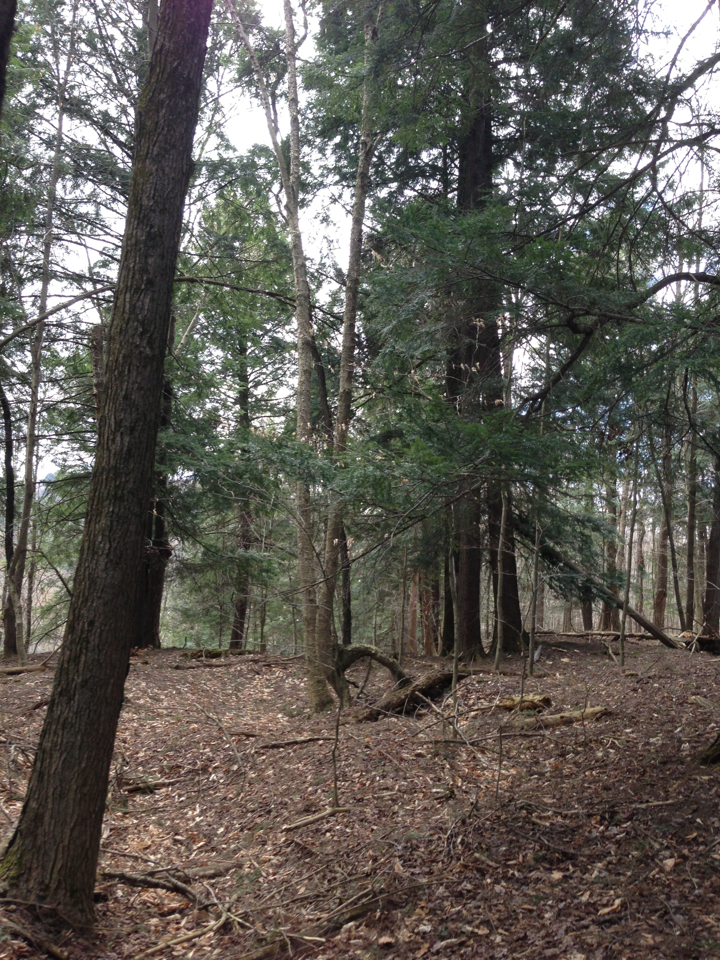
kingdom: Plantae
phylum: Tracheophyta
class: Pinopsida
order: Pinales
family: Pinaceae
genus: Tsuga
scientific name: Tsuga canadensis
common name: Eastern hemlock
